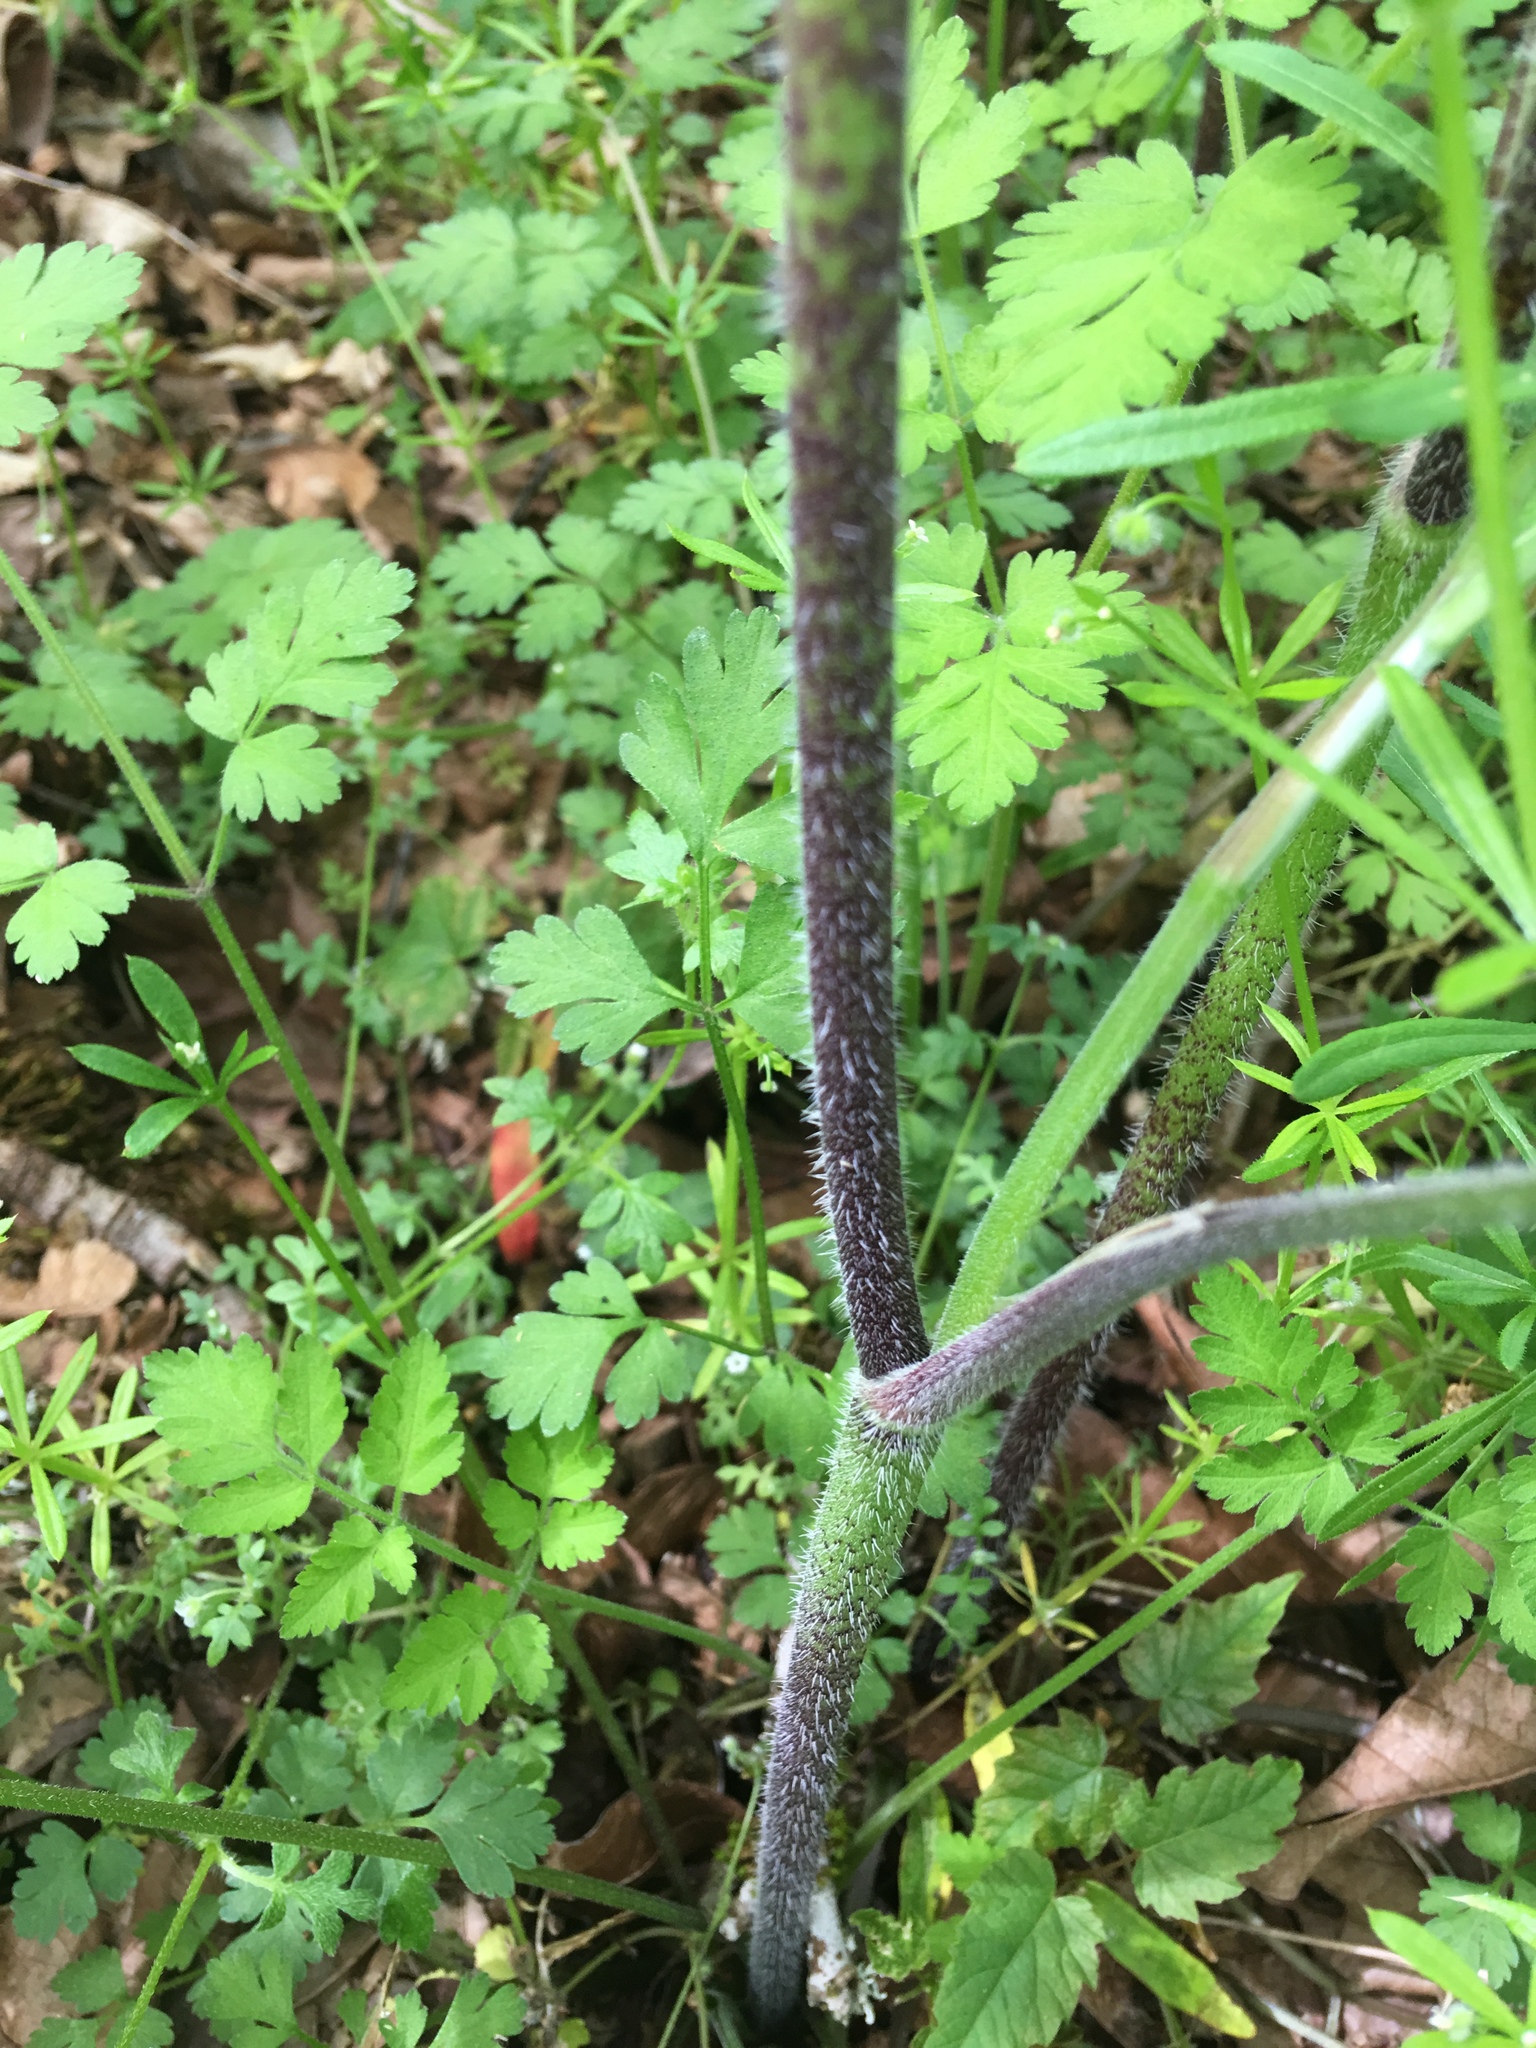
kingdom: Plantae
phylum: Tracheophyta
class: Magnoliopsida
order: Apiales
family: Apiaceae
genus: Chaerophyllum
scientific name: Chaerophyllum temulum
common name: Rough chervil
